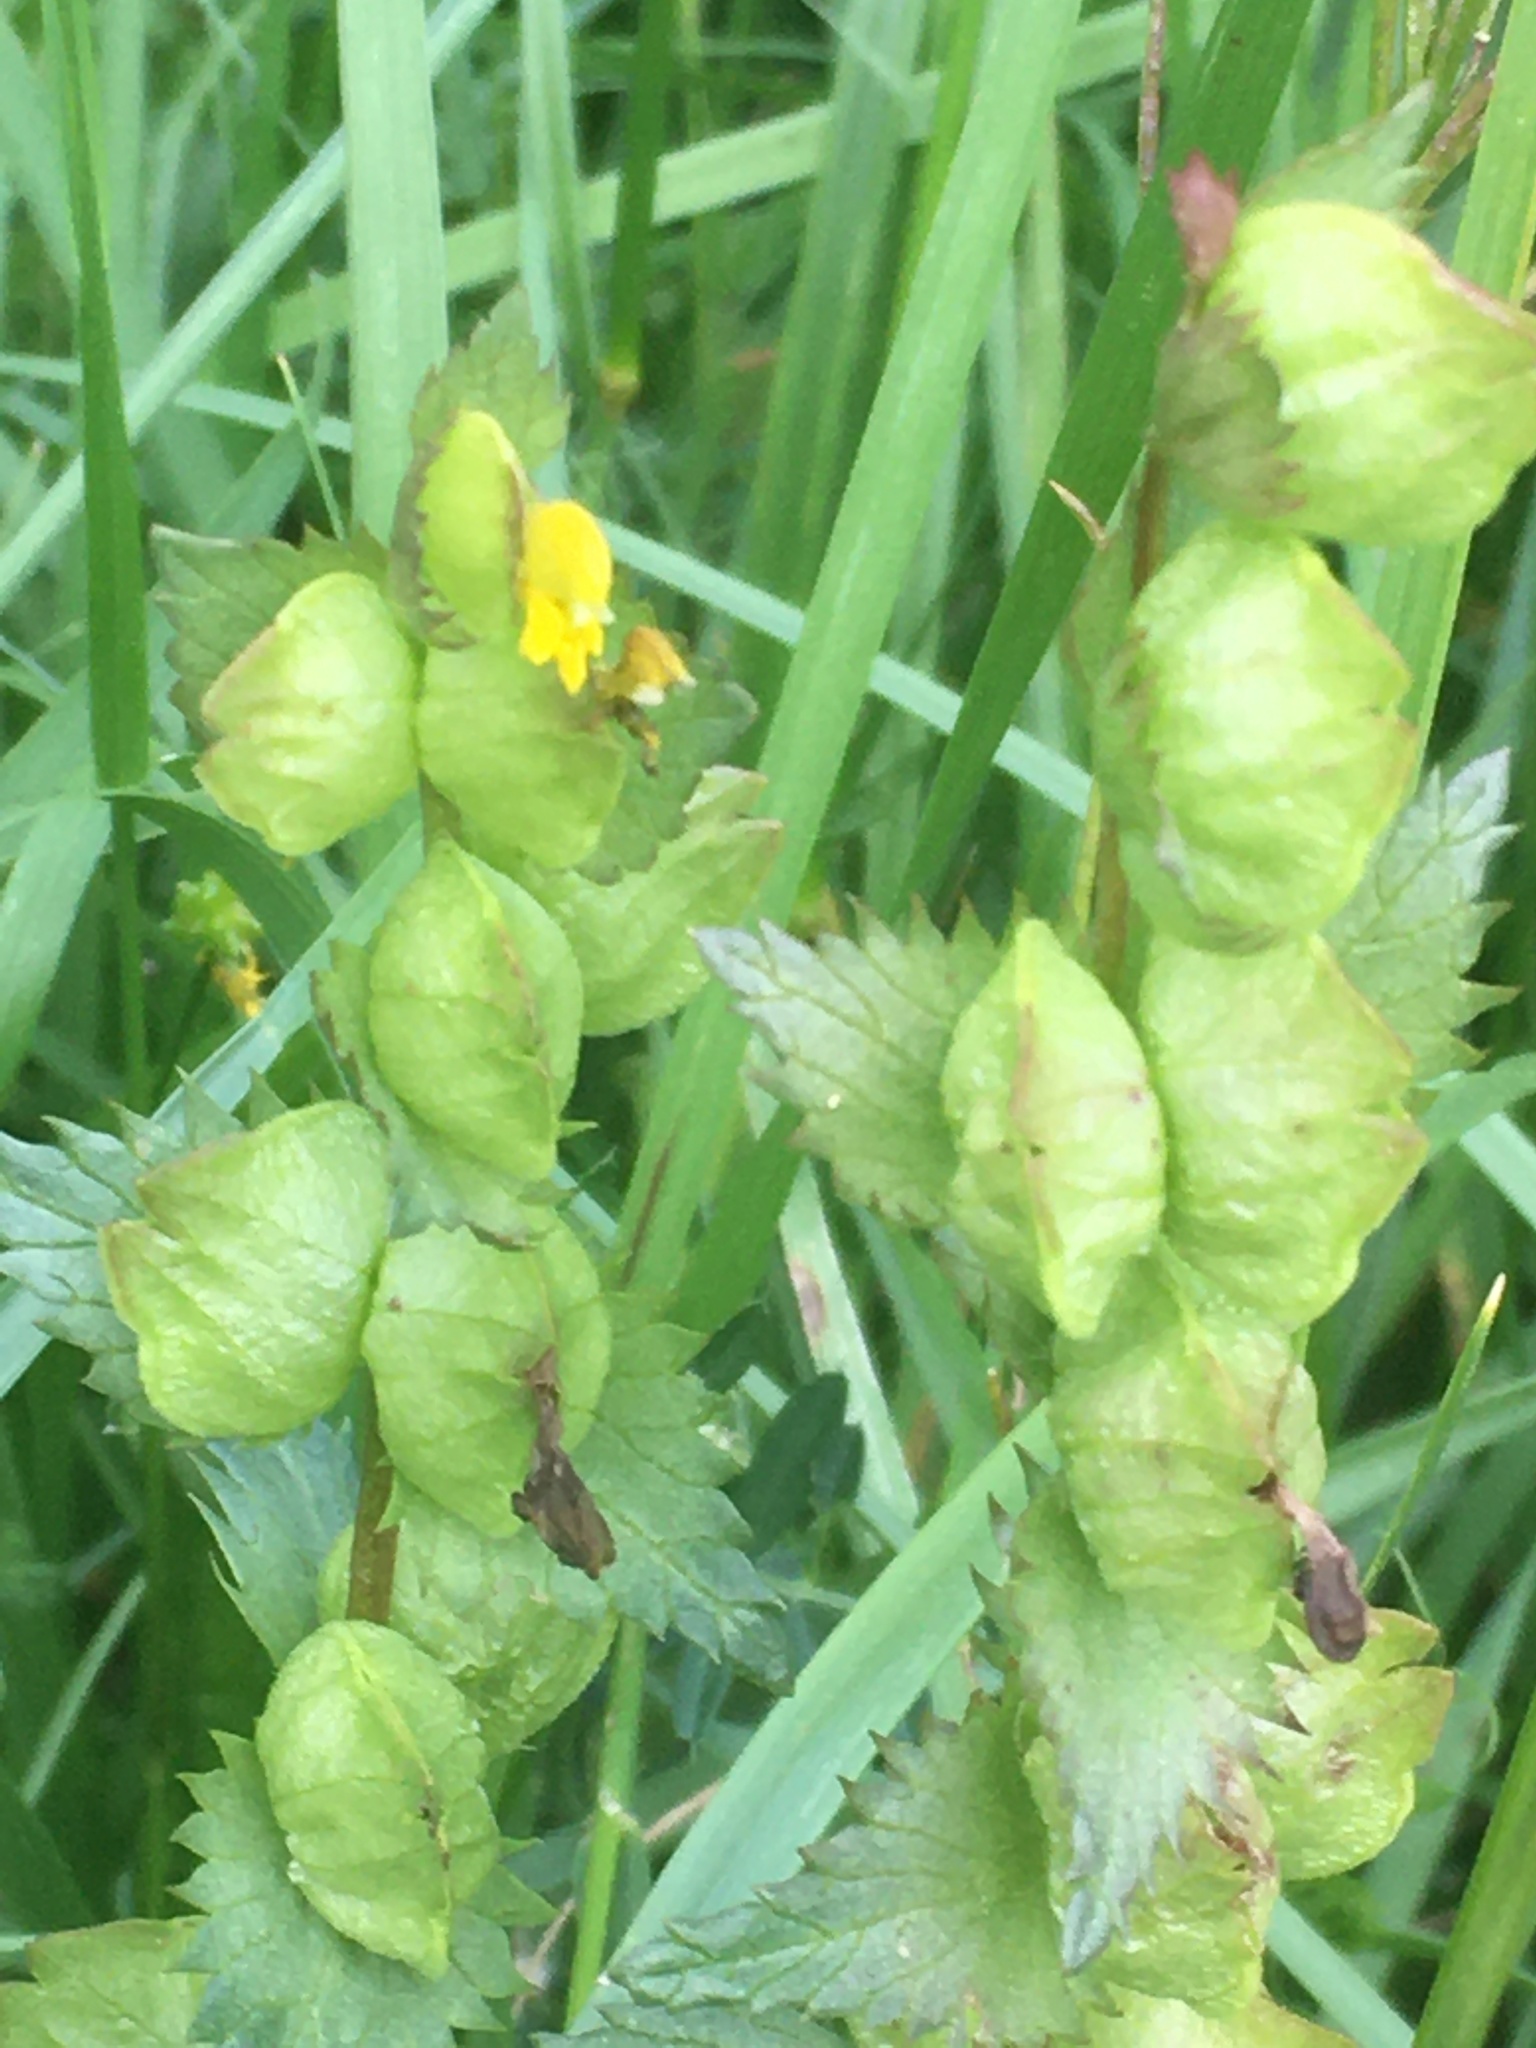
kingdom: Plantae
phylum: Tracheophyta
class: Magnoliopsida
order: Lamiales
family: Orobanchaceae
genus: Rhinanthus
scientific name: Rhinanthus minor
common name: Yellow-rattle
